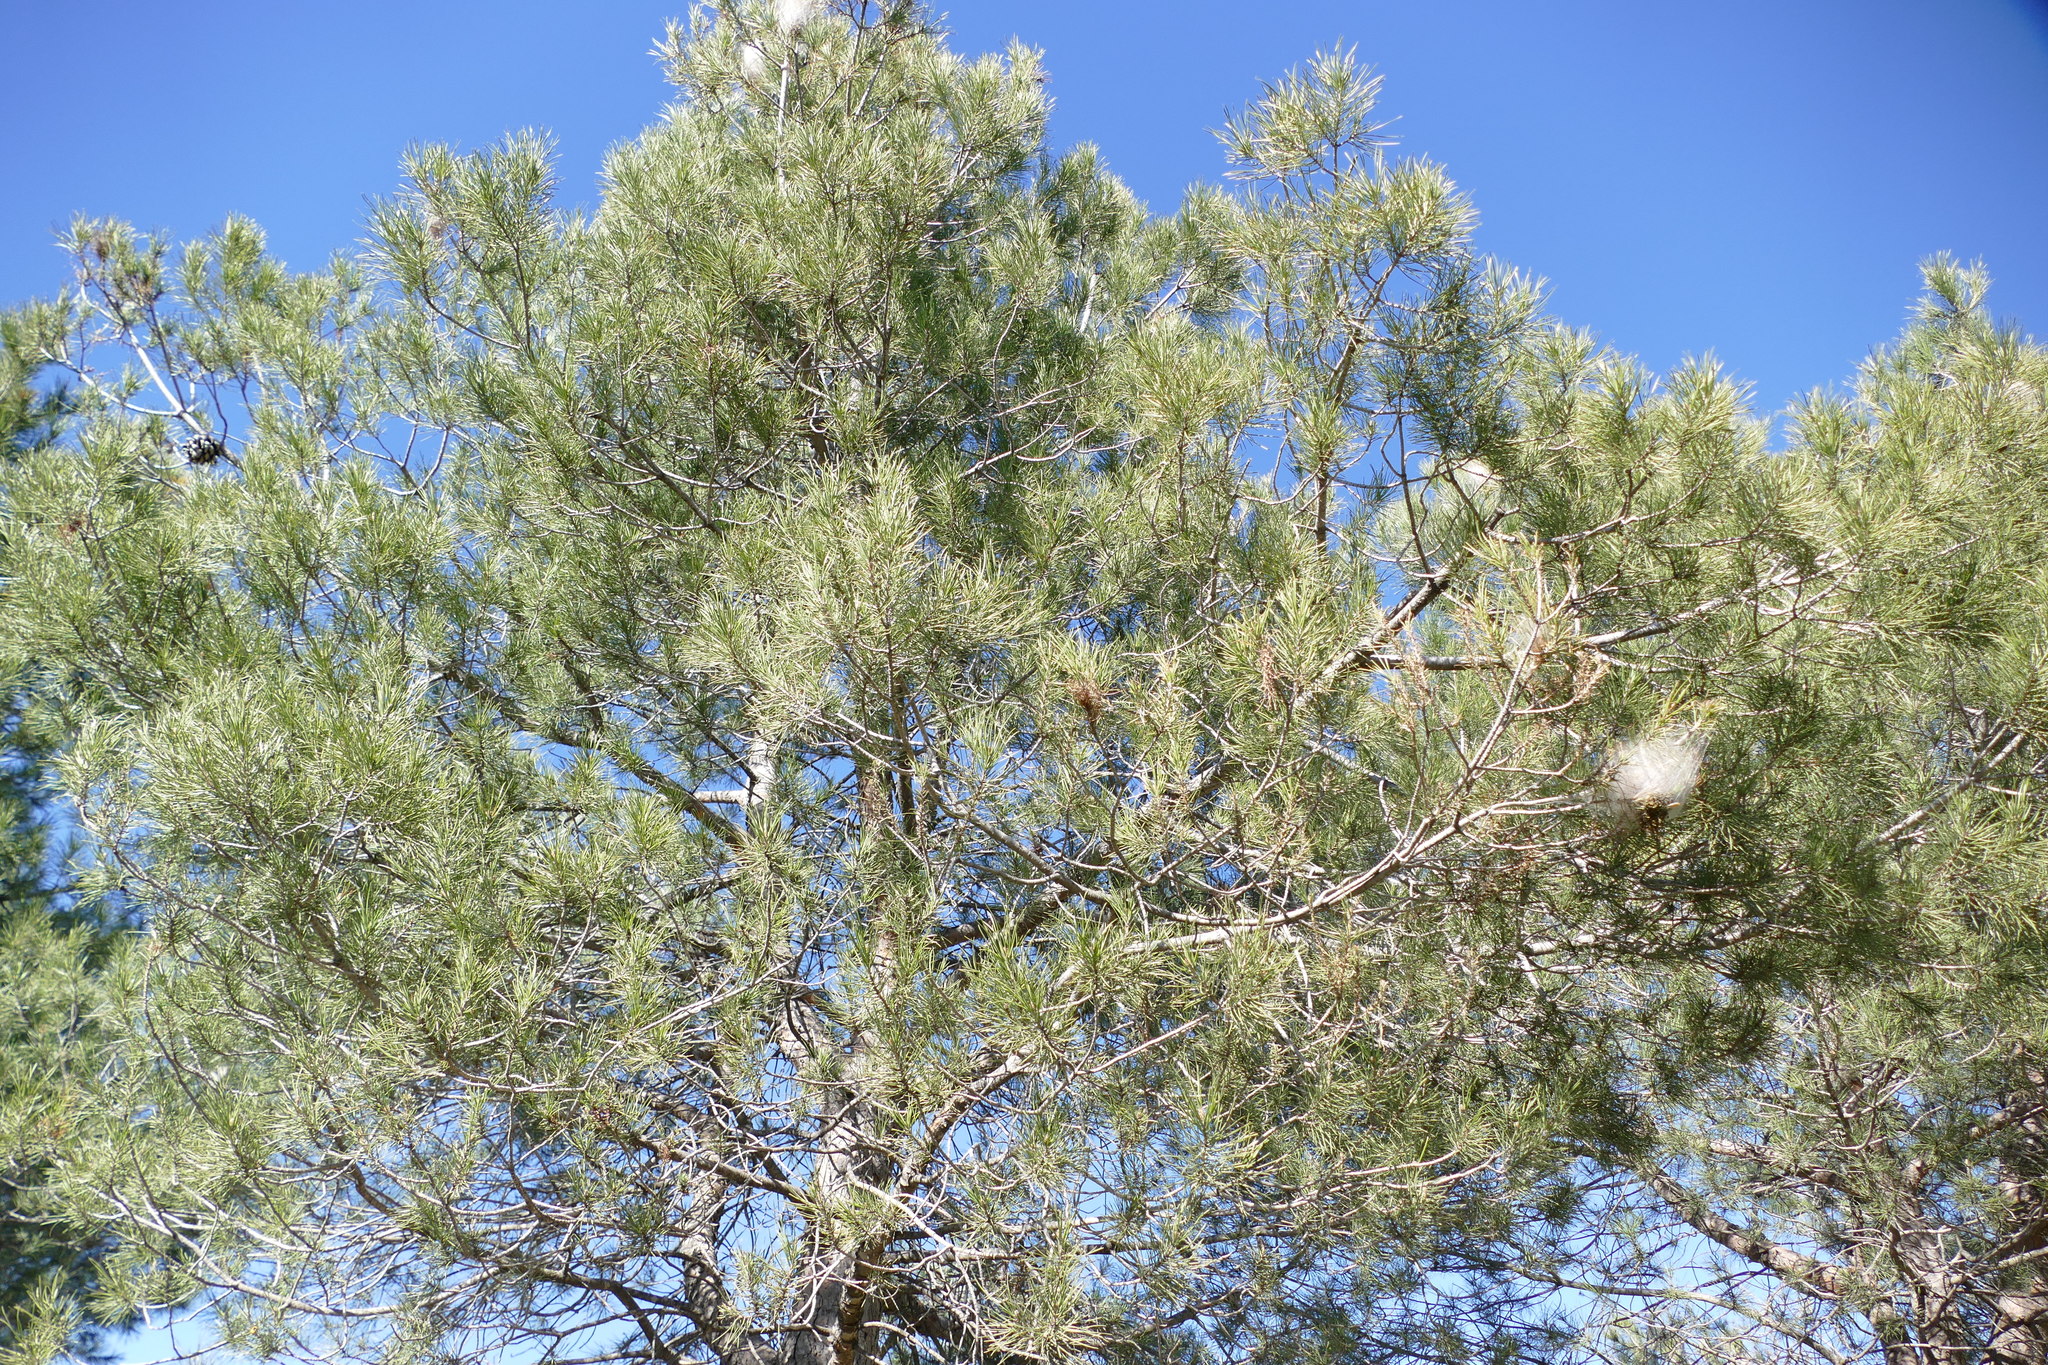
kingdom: Animalia
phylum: Arthropoda
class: Insecta
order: Lepidoptera
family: Notodontidae
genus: Thaumetopoea
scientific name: Thaumetopoea pityocampa
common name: Pine processionary
